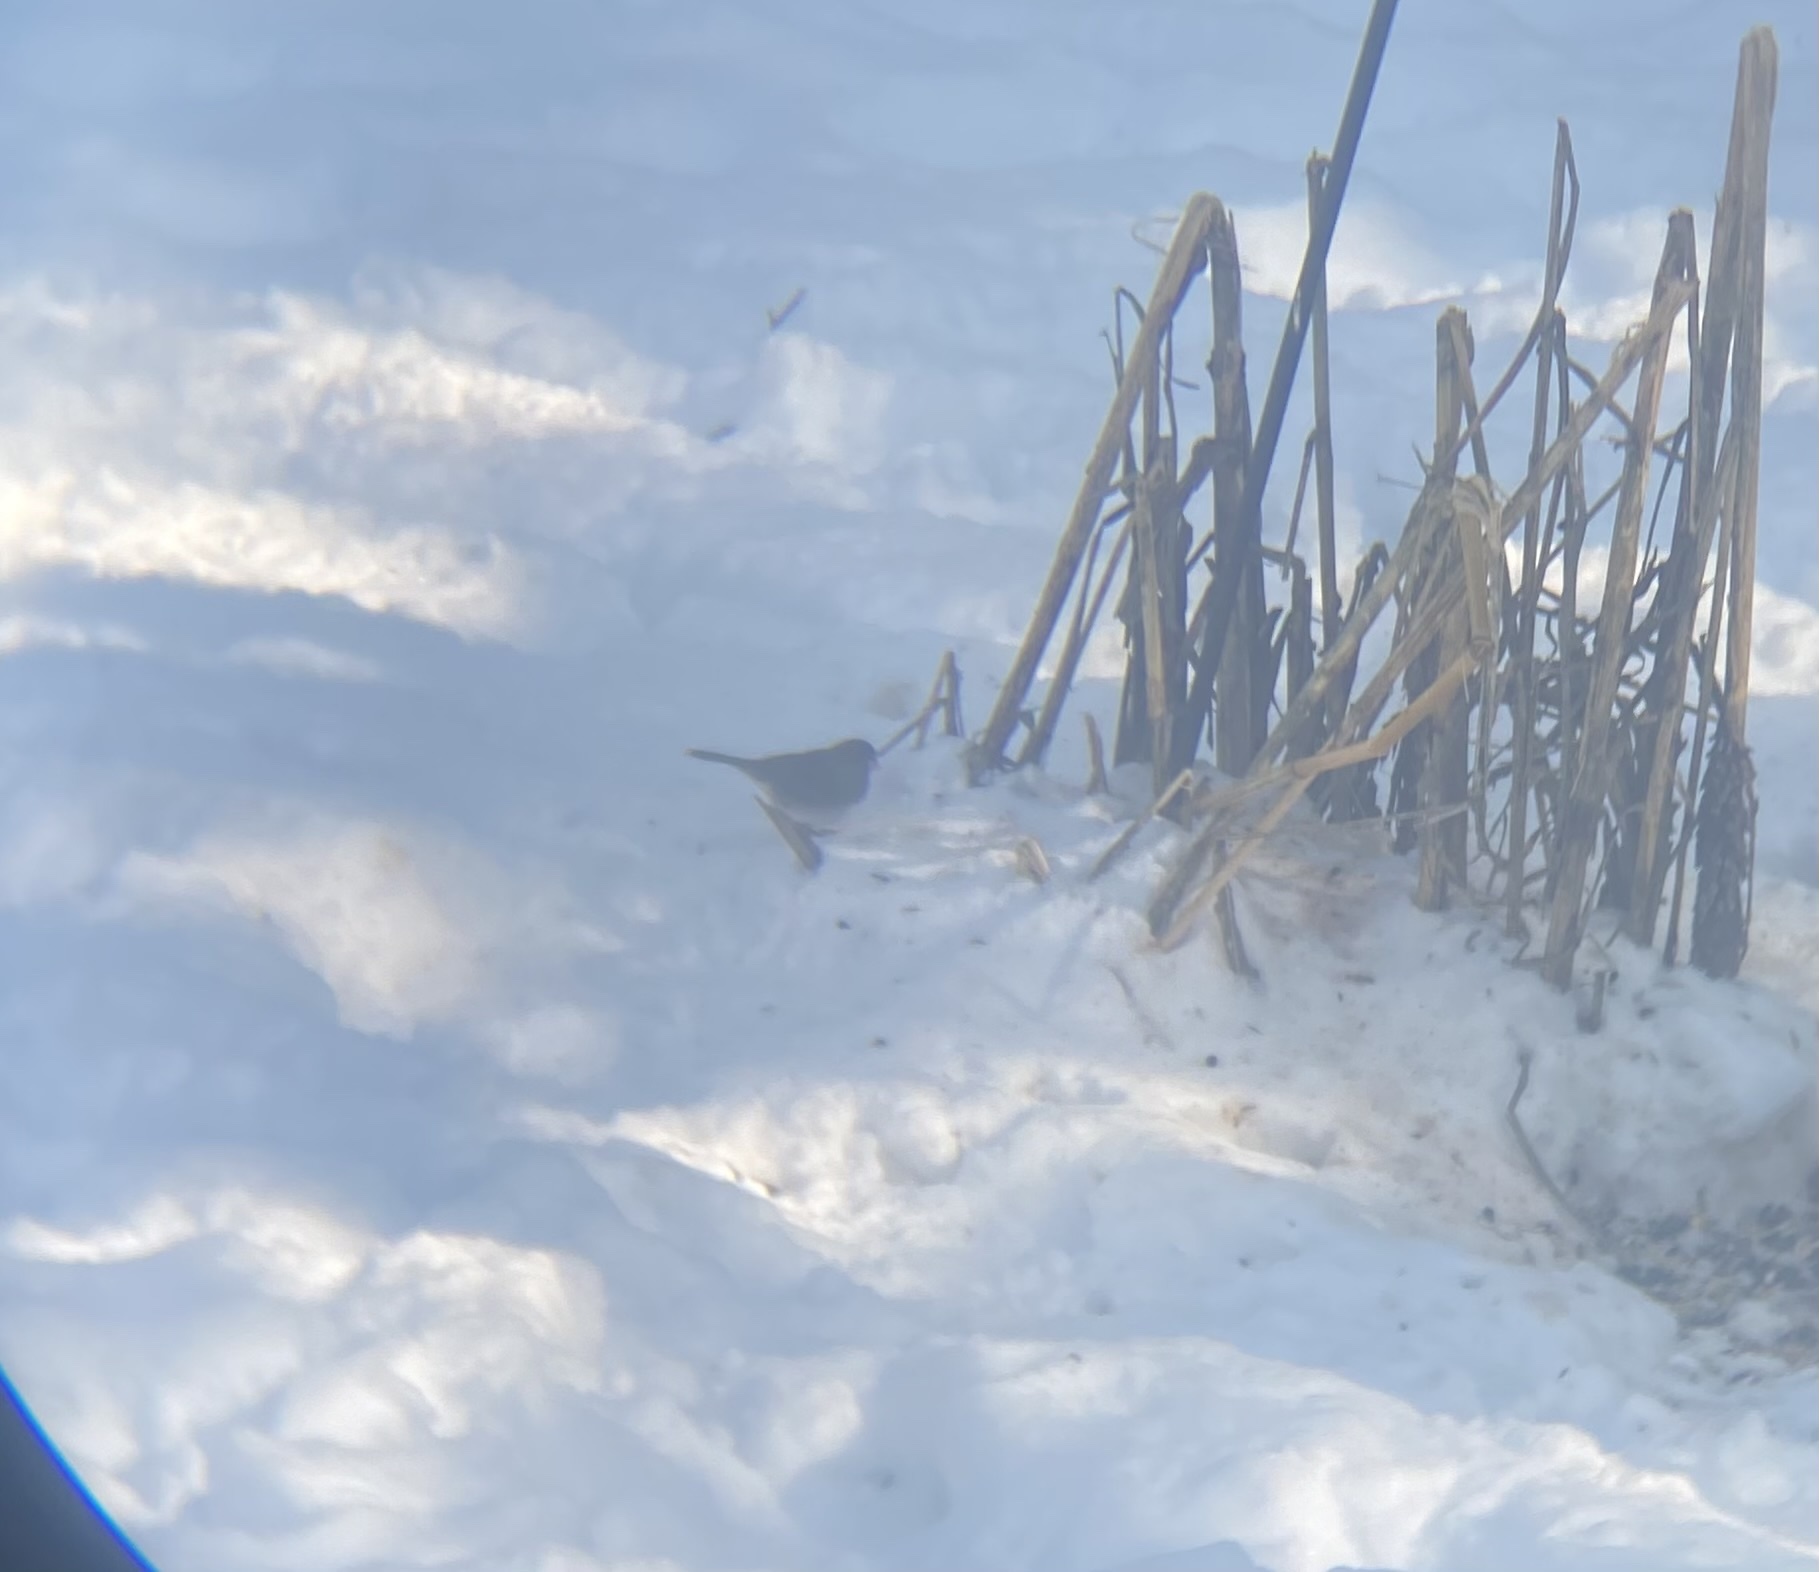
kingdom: Animalia
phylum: Chordata
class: Aves
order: Passeriformes
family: Passerellidae
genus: Junco
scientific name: Junco hyemalis
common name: Dark-eyed junco
